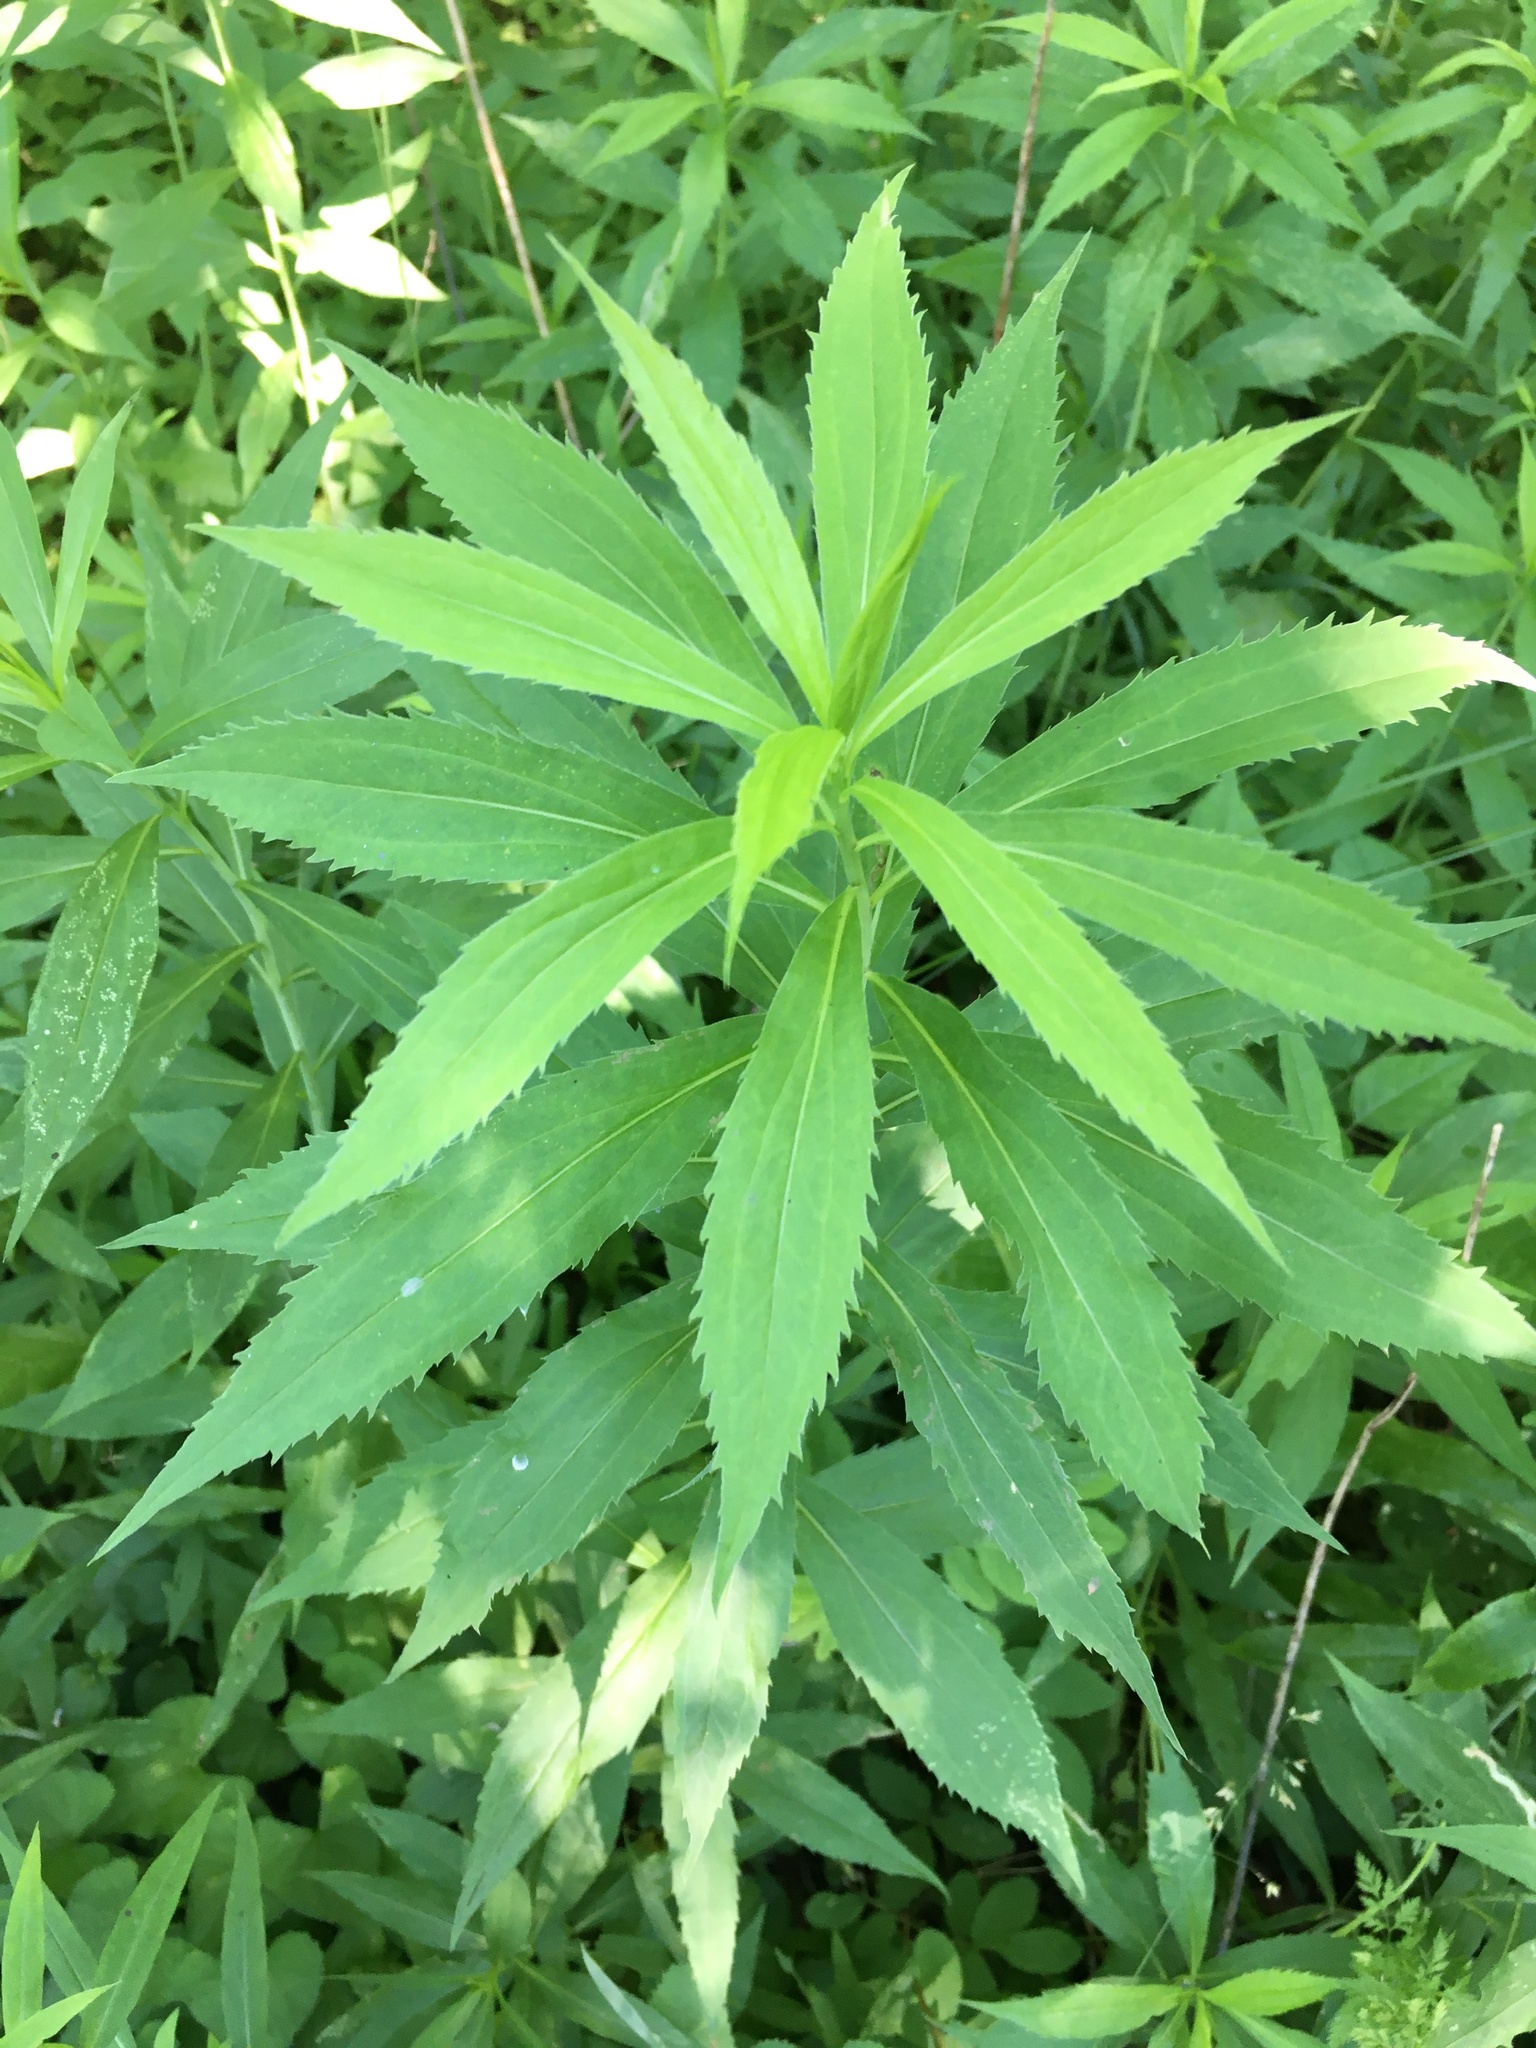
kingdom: Plantae
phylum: Tracheophyta
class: Magnoliopsida
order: Asterales
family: Asteraceae
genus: Solidago
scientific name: Solidago gigantea
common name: Giant goldenrod
